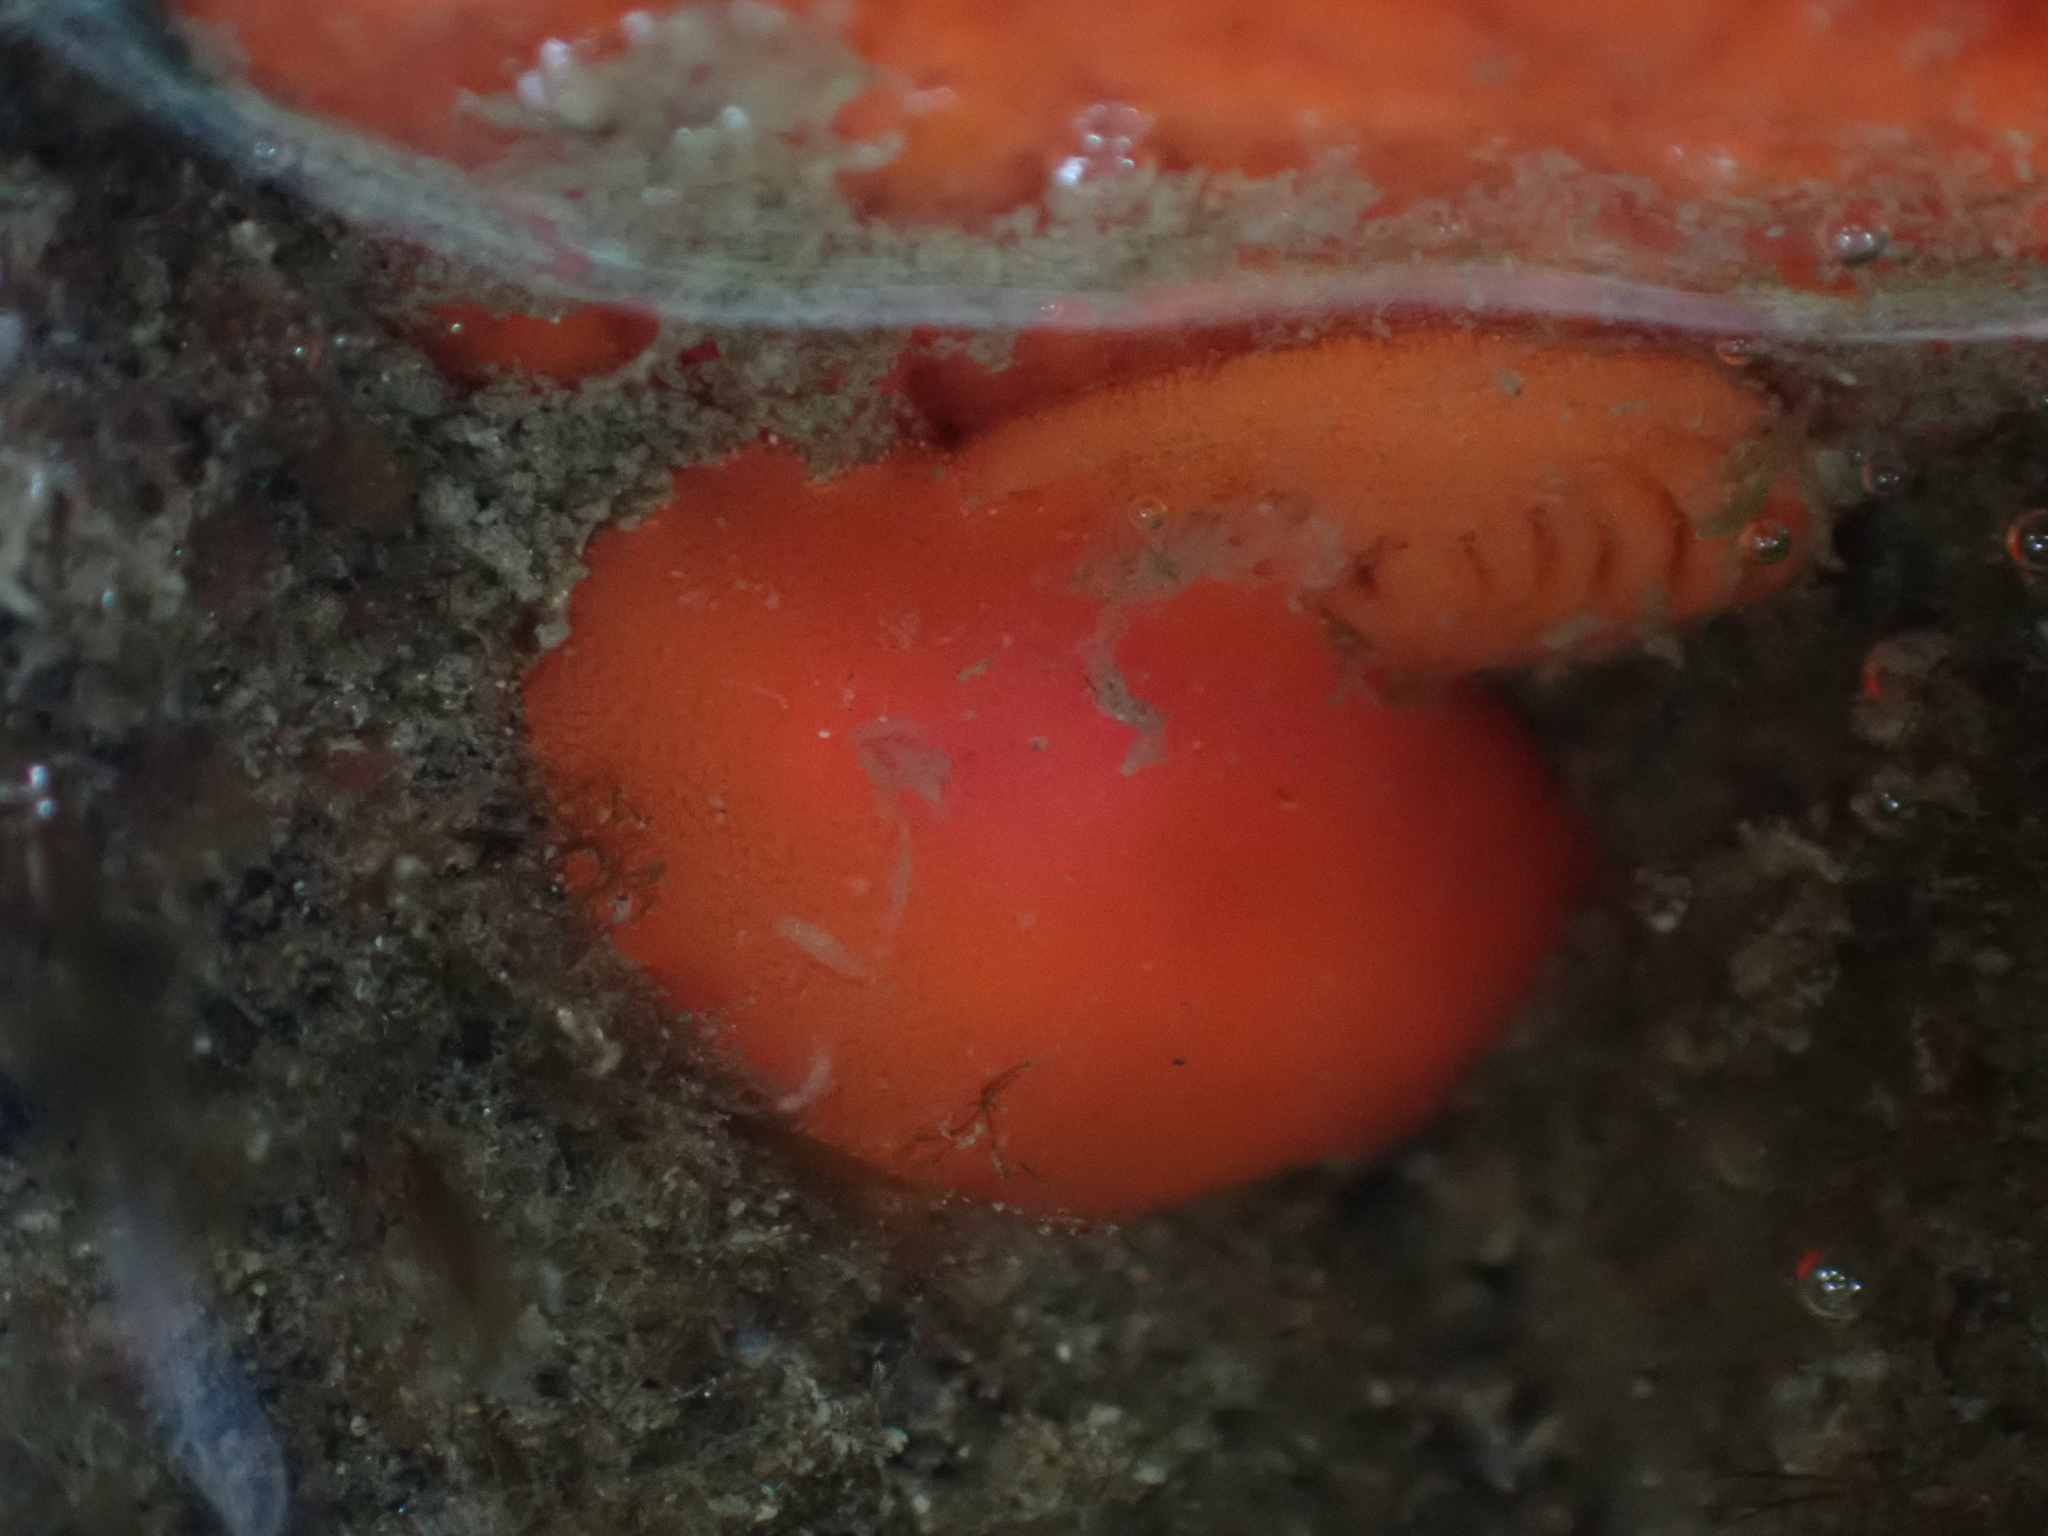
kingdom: Animalia
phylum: Mollusca
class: Gastropoda
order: Nudibranchia
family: Discodorididae
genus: Rostanga
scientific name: Rostanga pulchra
